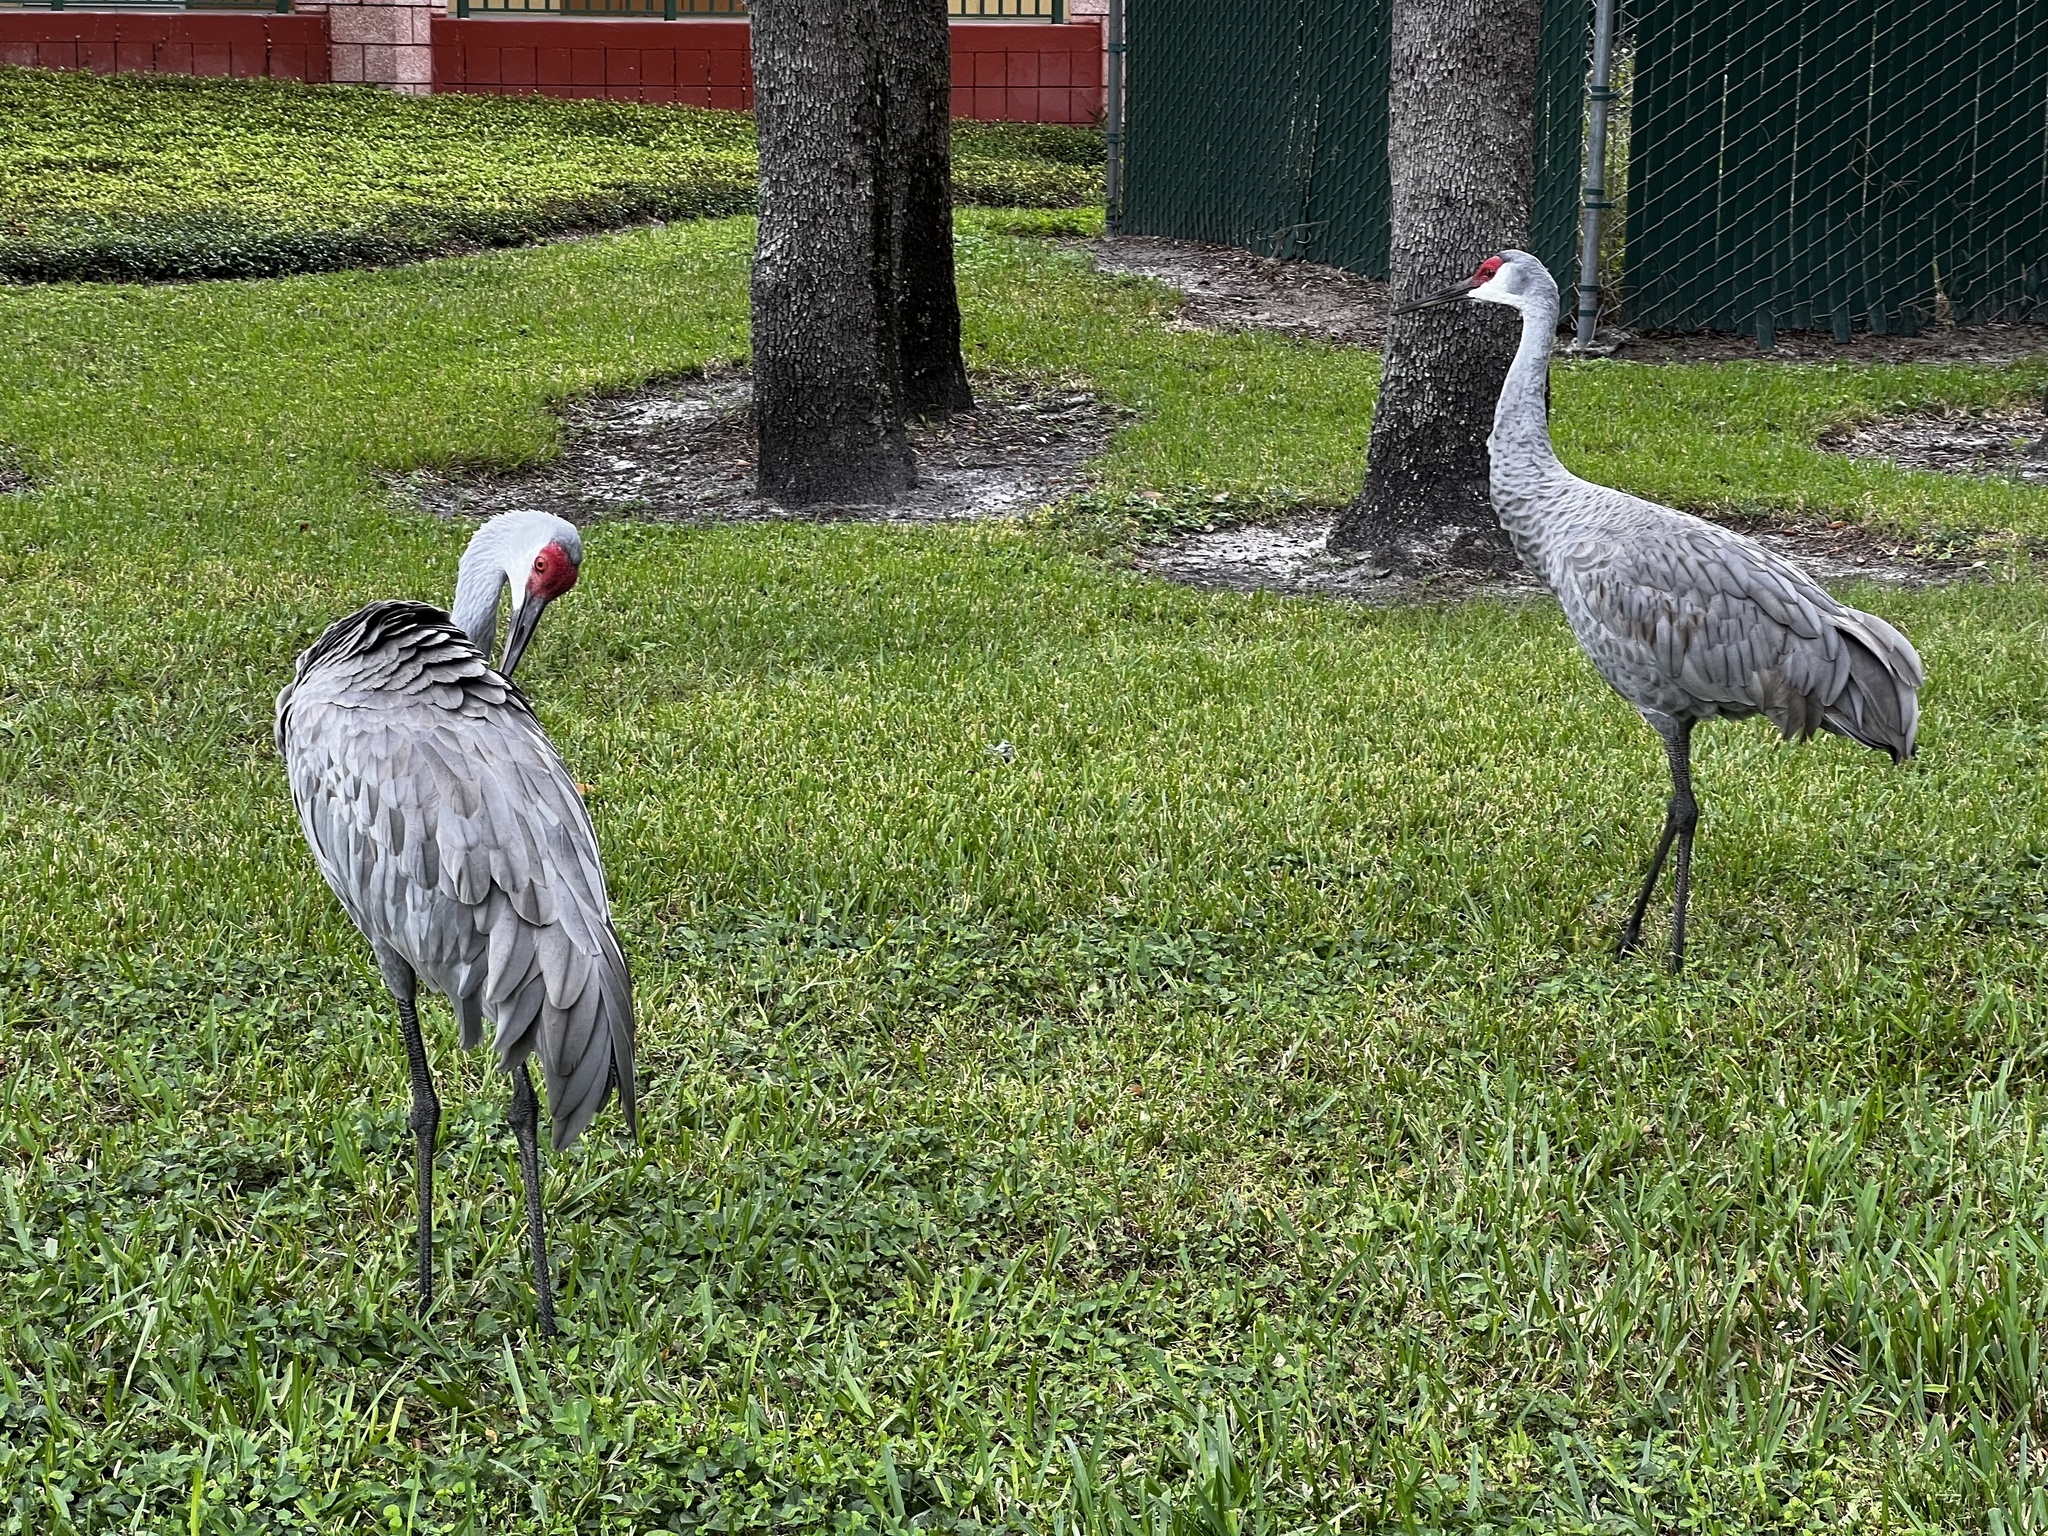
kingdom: Animalia
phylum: Chordata
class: Aves
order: Gruiformes
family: Gruidae
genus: Grus
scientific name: Grus canadensis
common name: Sandhill crane
